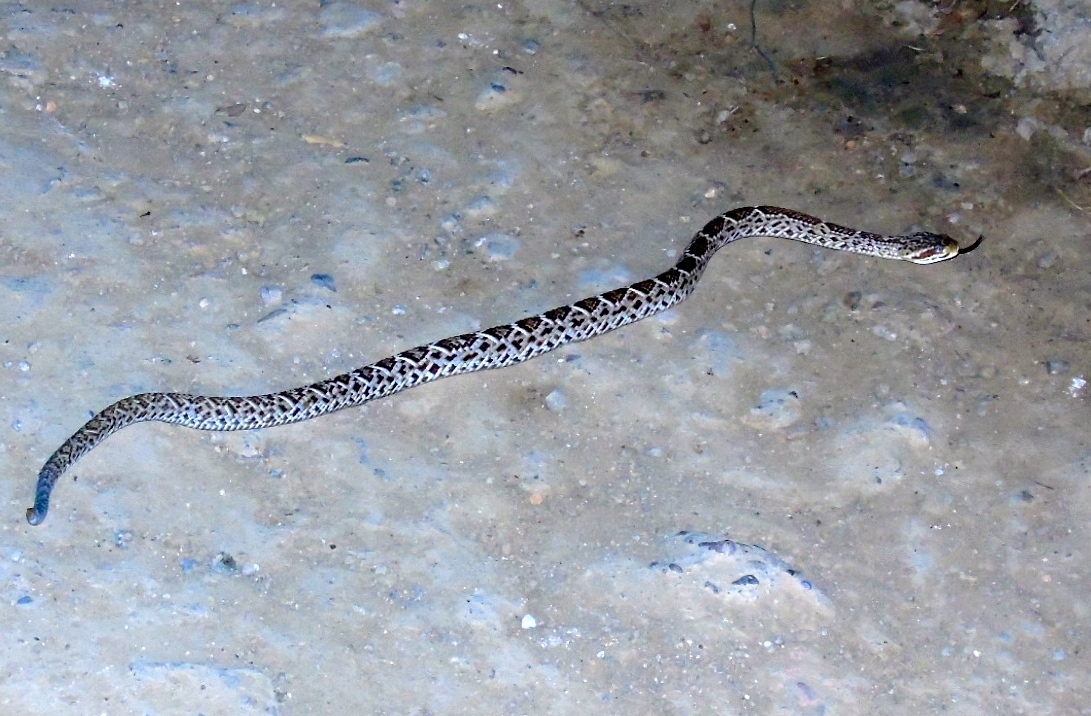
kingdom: Animalia
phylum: Chordata
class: Squamata
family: Viperidae
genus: Crotalus
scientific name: Crotalus basiliscus
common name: Basilisk rattlesnake
